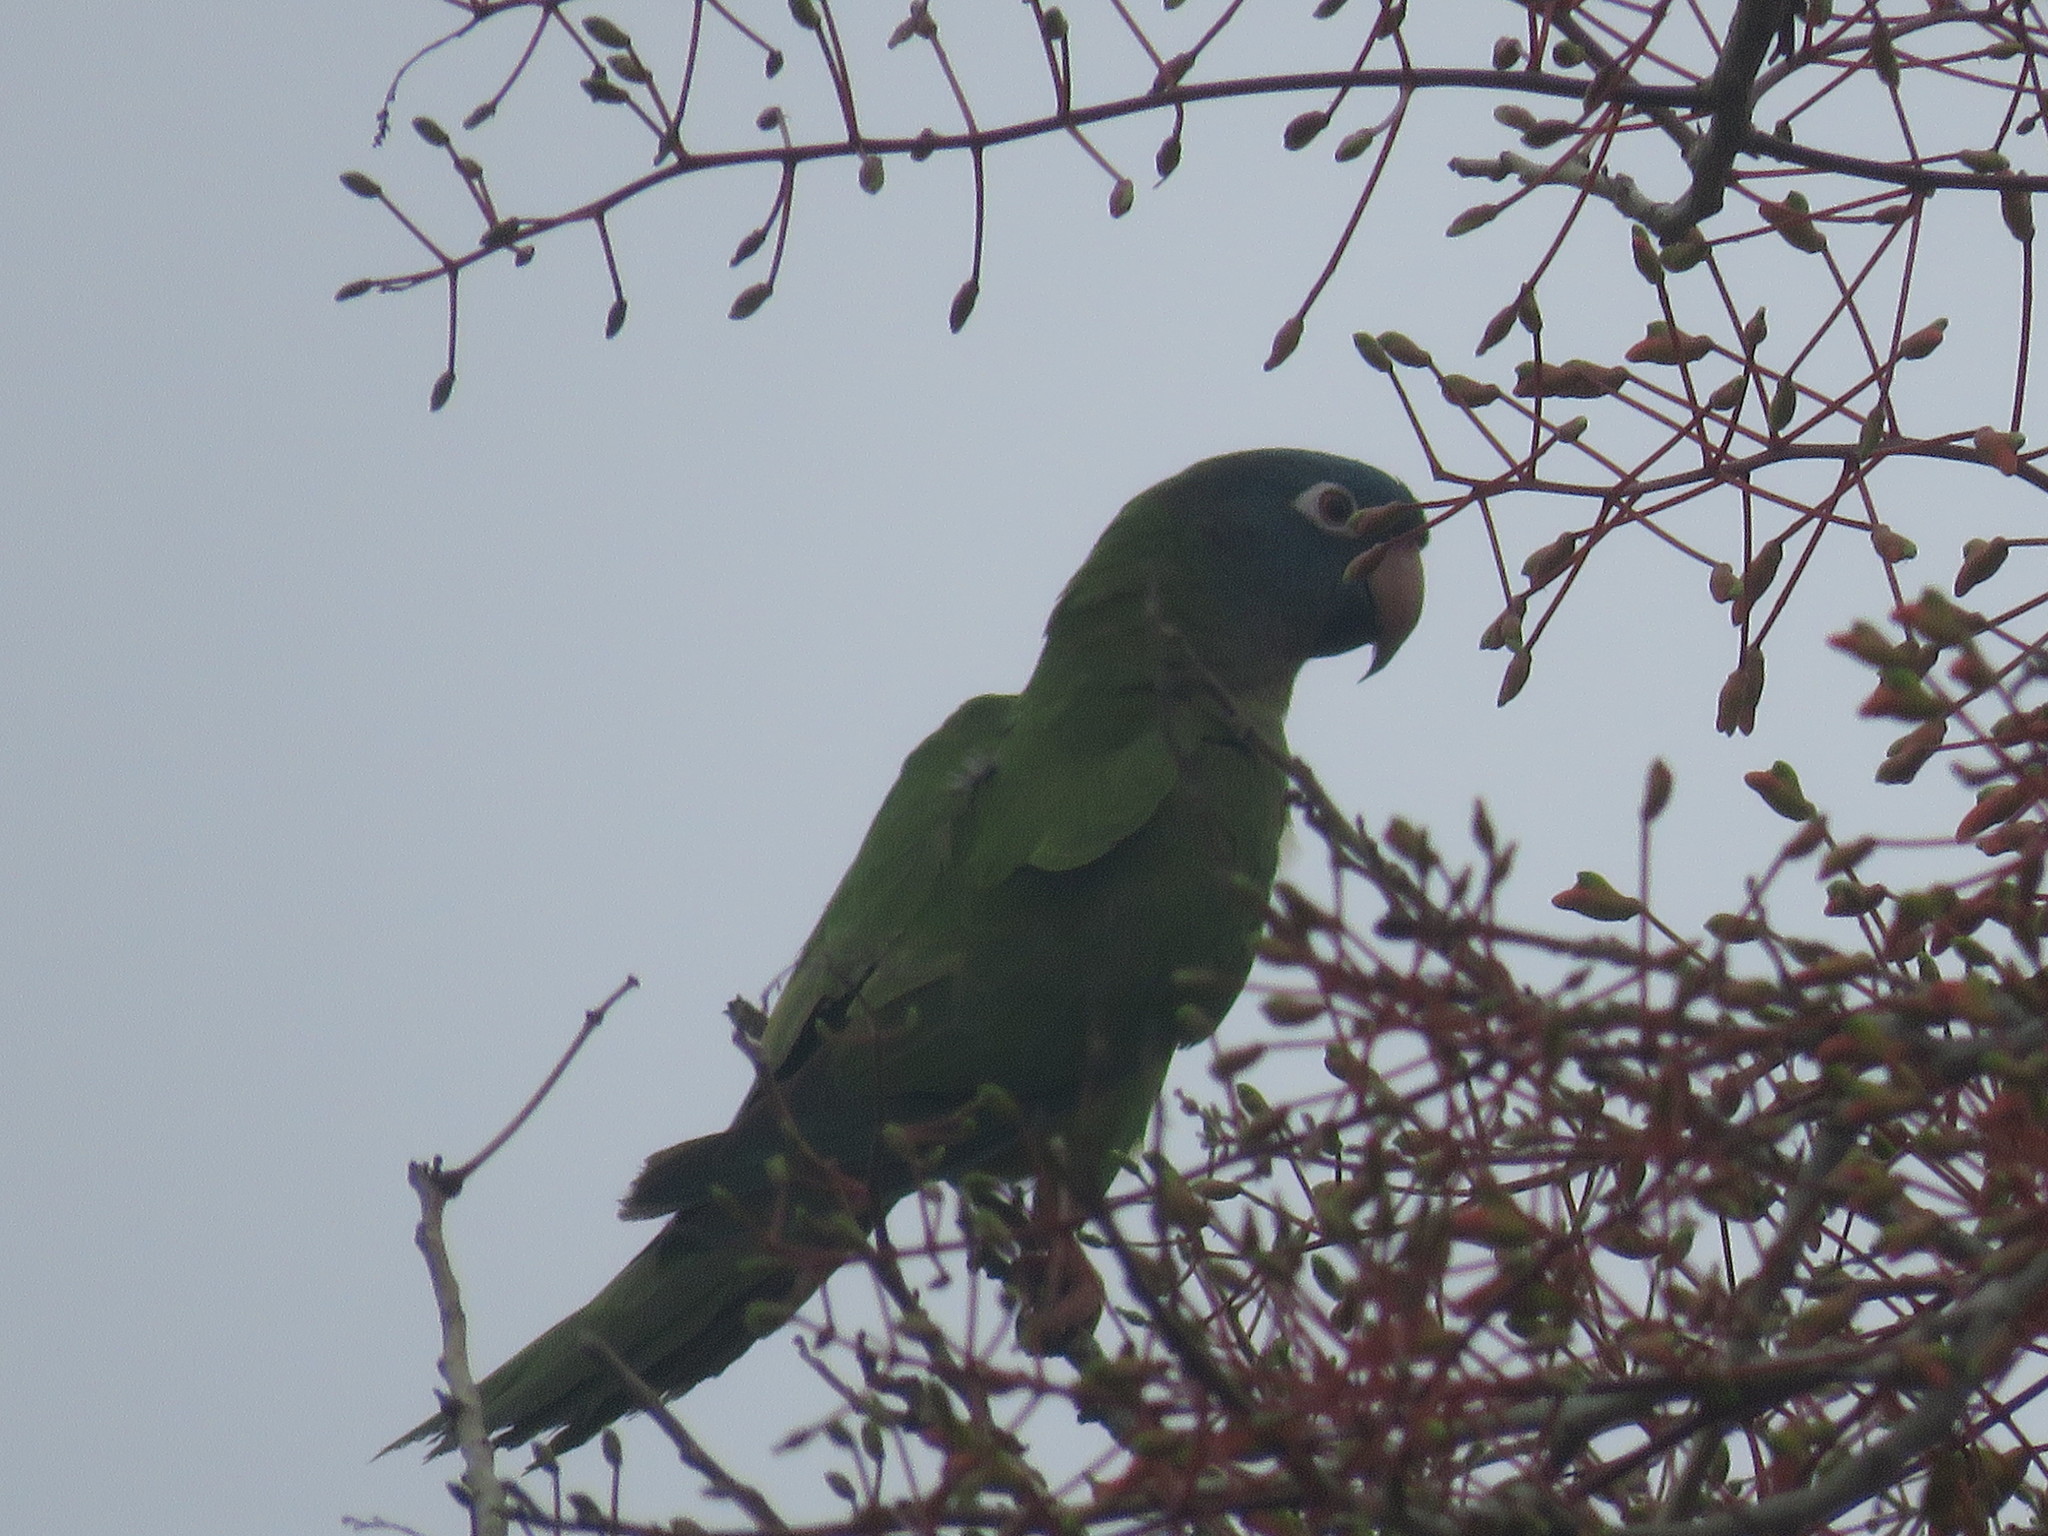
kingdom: Animalia
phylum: Chordata
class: Aves
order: Psittaciformes
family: Psittacidae
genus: Aratinga
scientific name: Aratinga acuticaudata
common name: Blue-crowned parakeet
